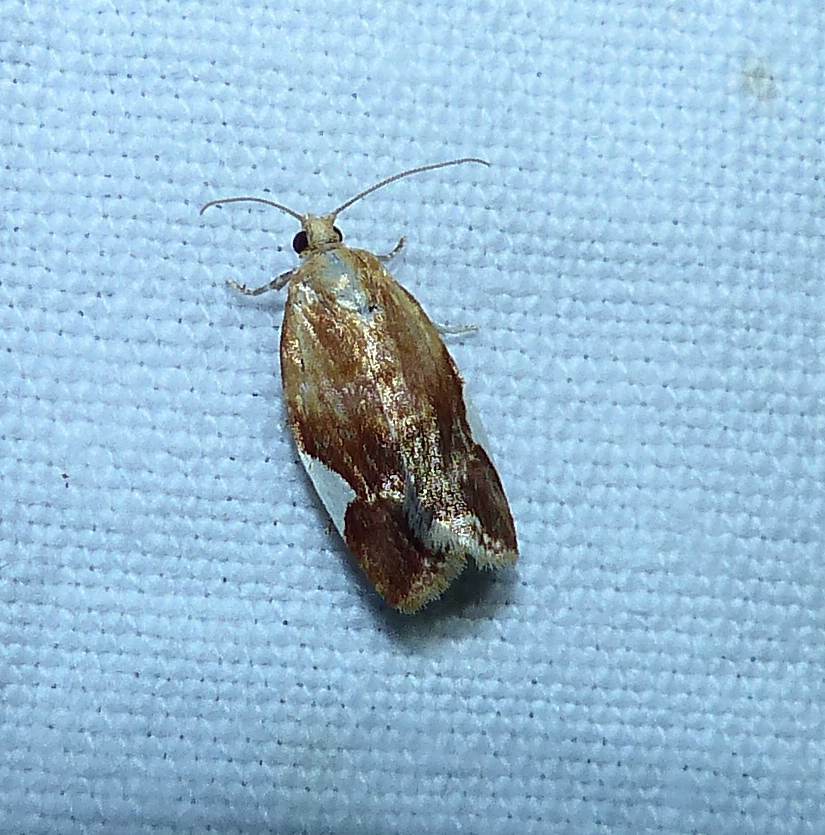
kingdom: Animalia
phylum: Arthropoda
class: Insecta
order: Lepidoptera
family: Tortricidae
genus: Clepsis
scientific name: Clepsis persicana
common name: White triangle tortrix
